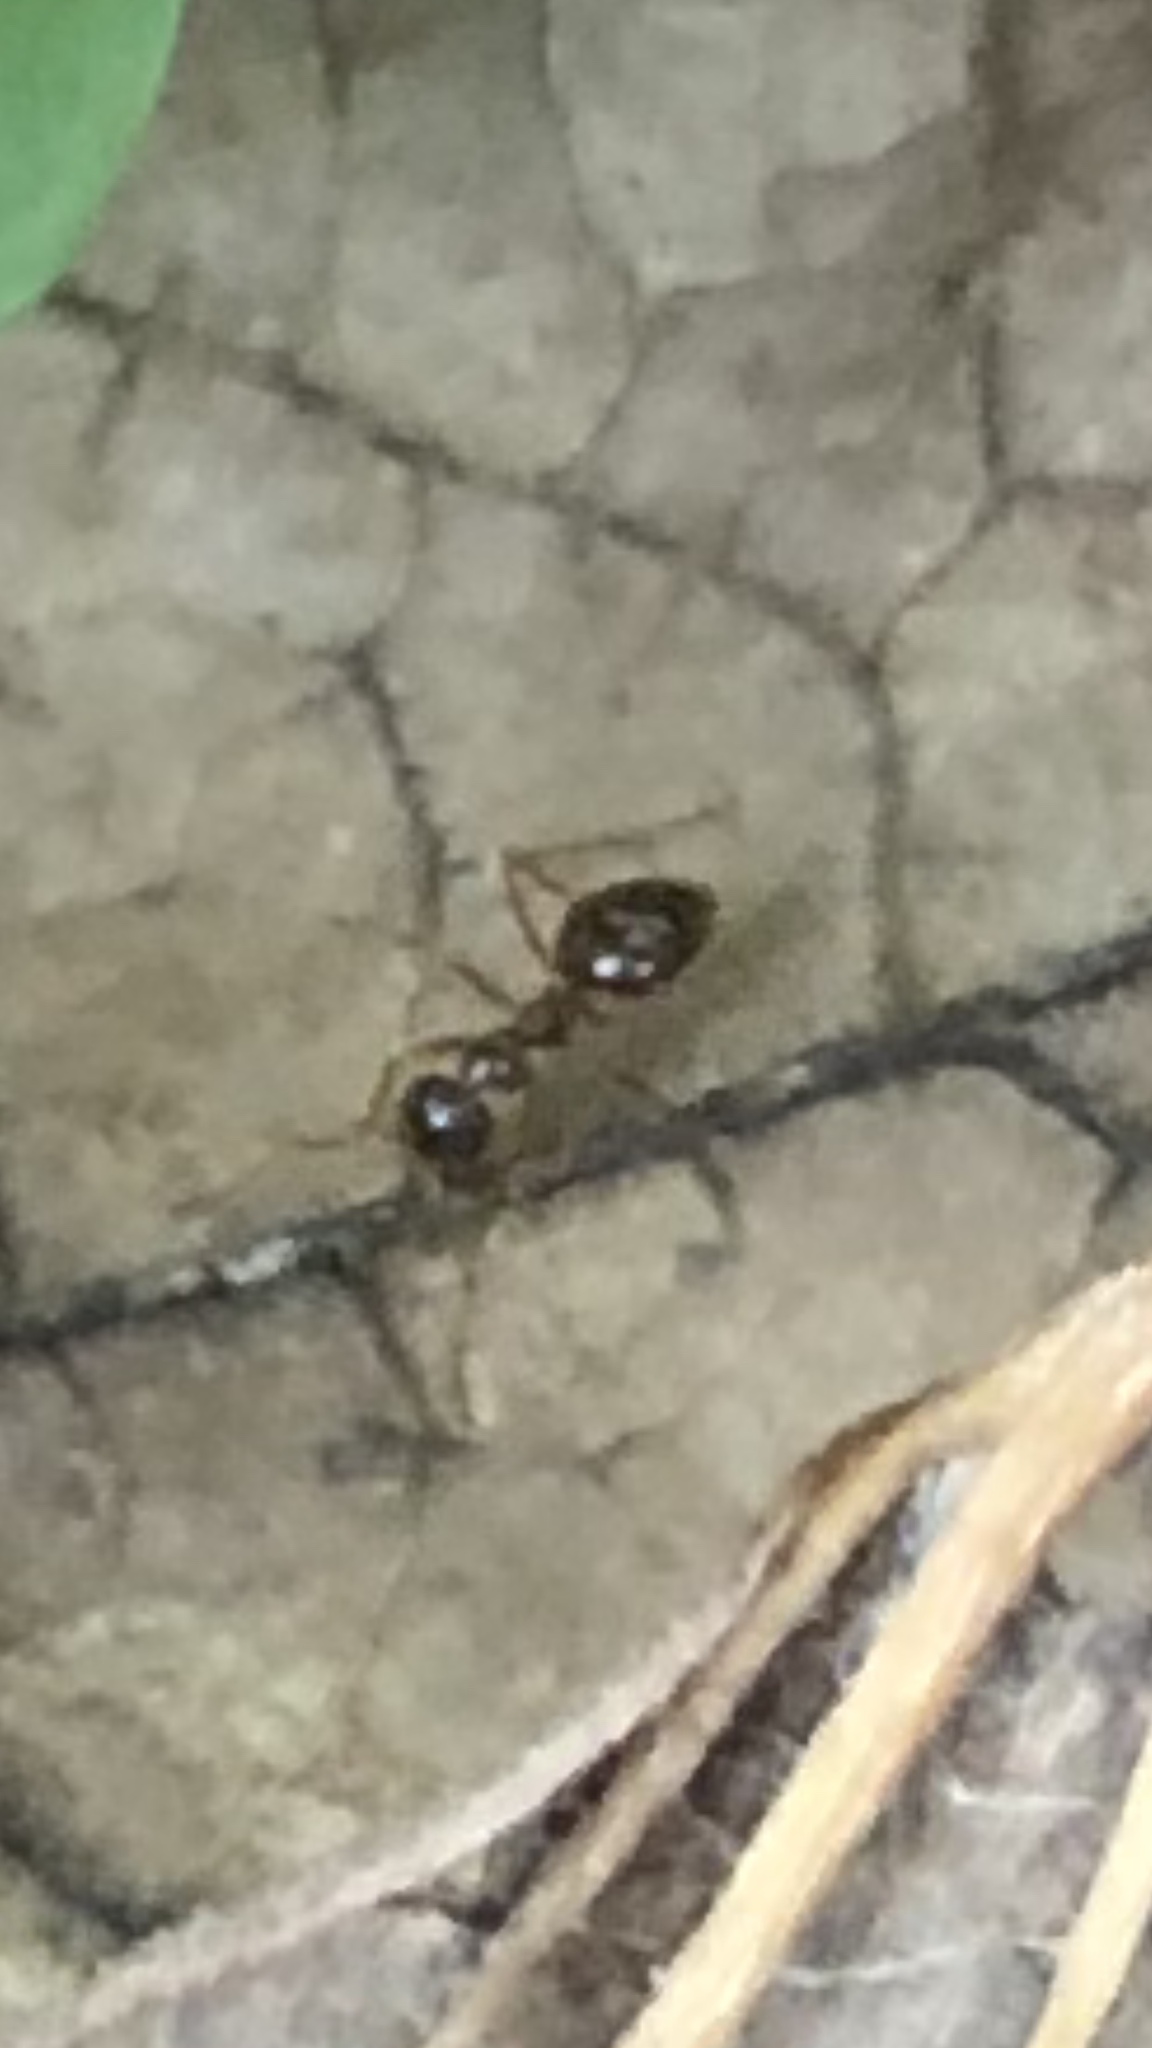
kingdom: Animalia
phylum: Arthropoda
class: Insecta
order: Hymenoptera
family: Formicidae
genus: Prenolepis
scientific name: Prenolepis imparis
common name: Small honey ant
